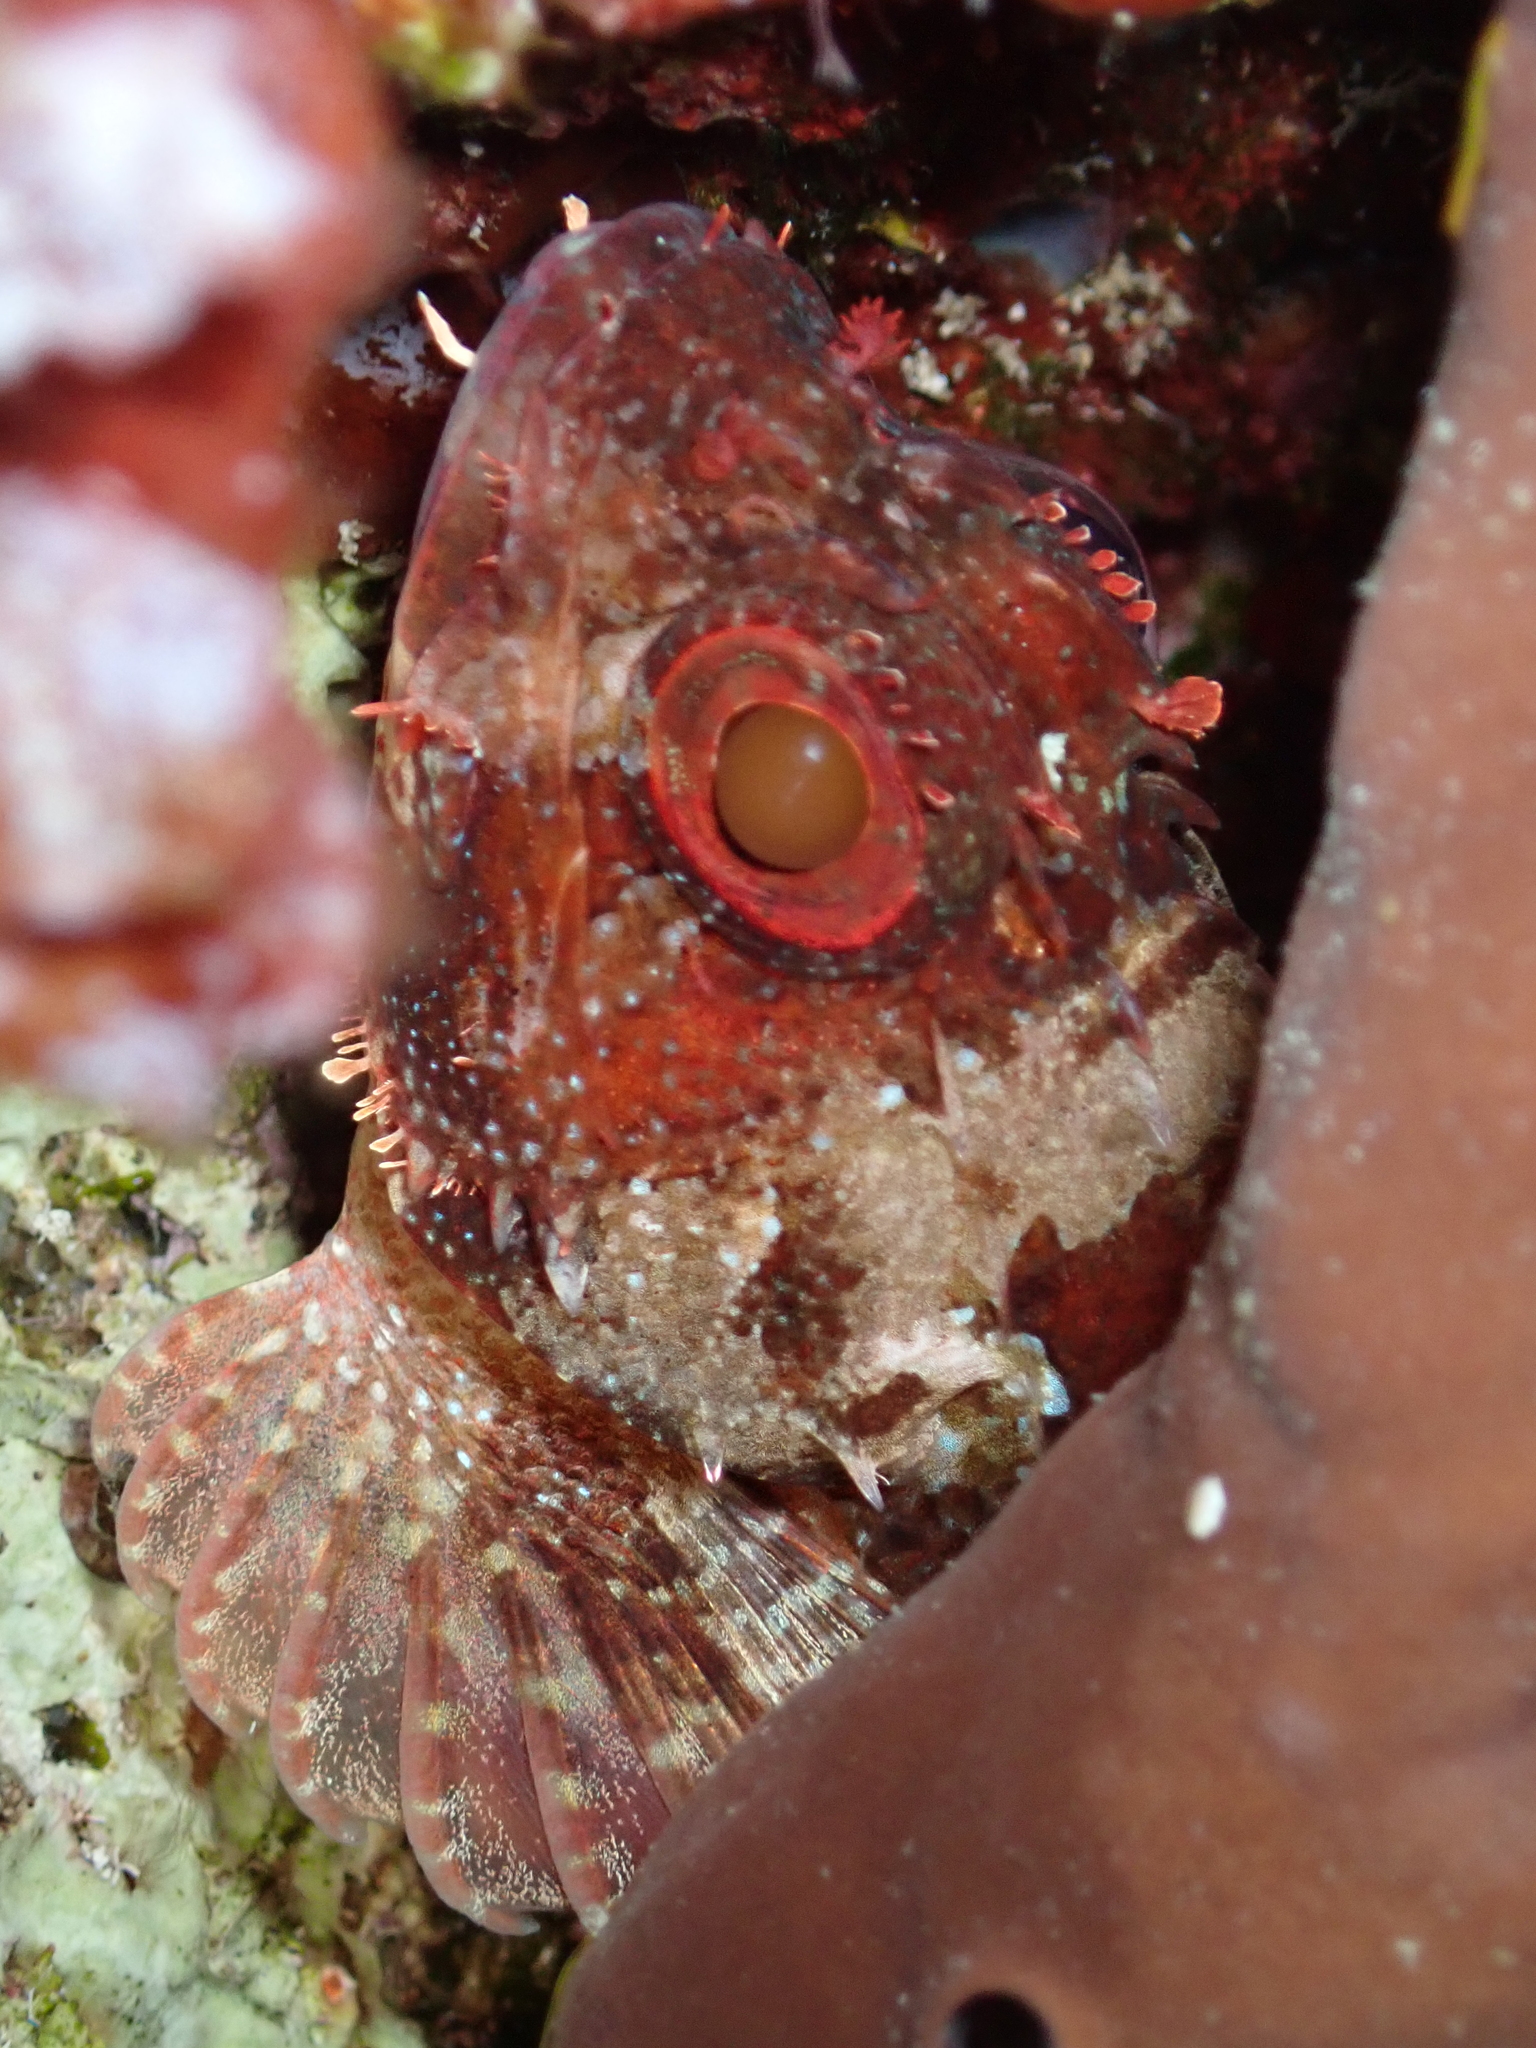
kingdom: Animalia
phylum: Chordata
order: Scorpaeniformes
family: Scorpaenidae
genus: Scorpaena
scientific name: Scorpaena maderensis
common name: Madeira rockfish
